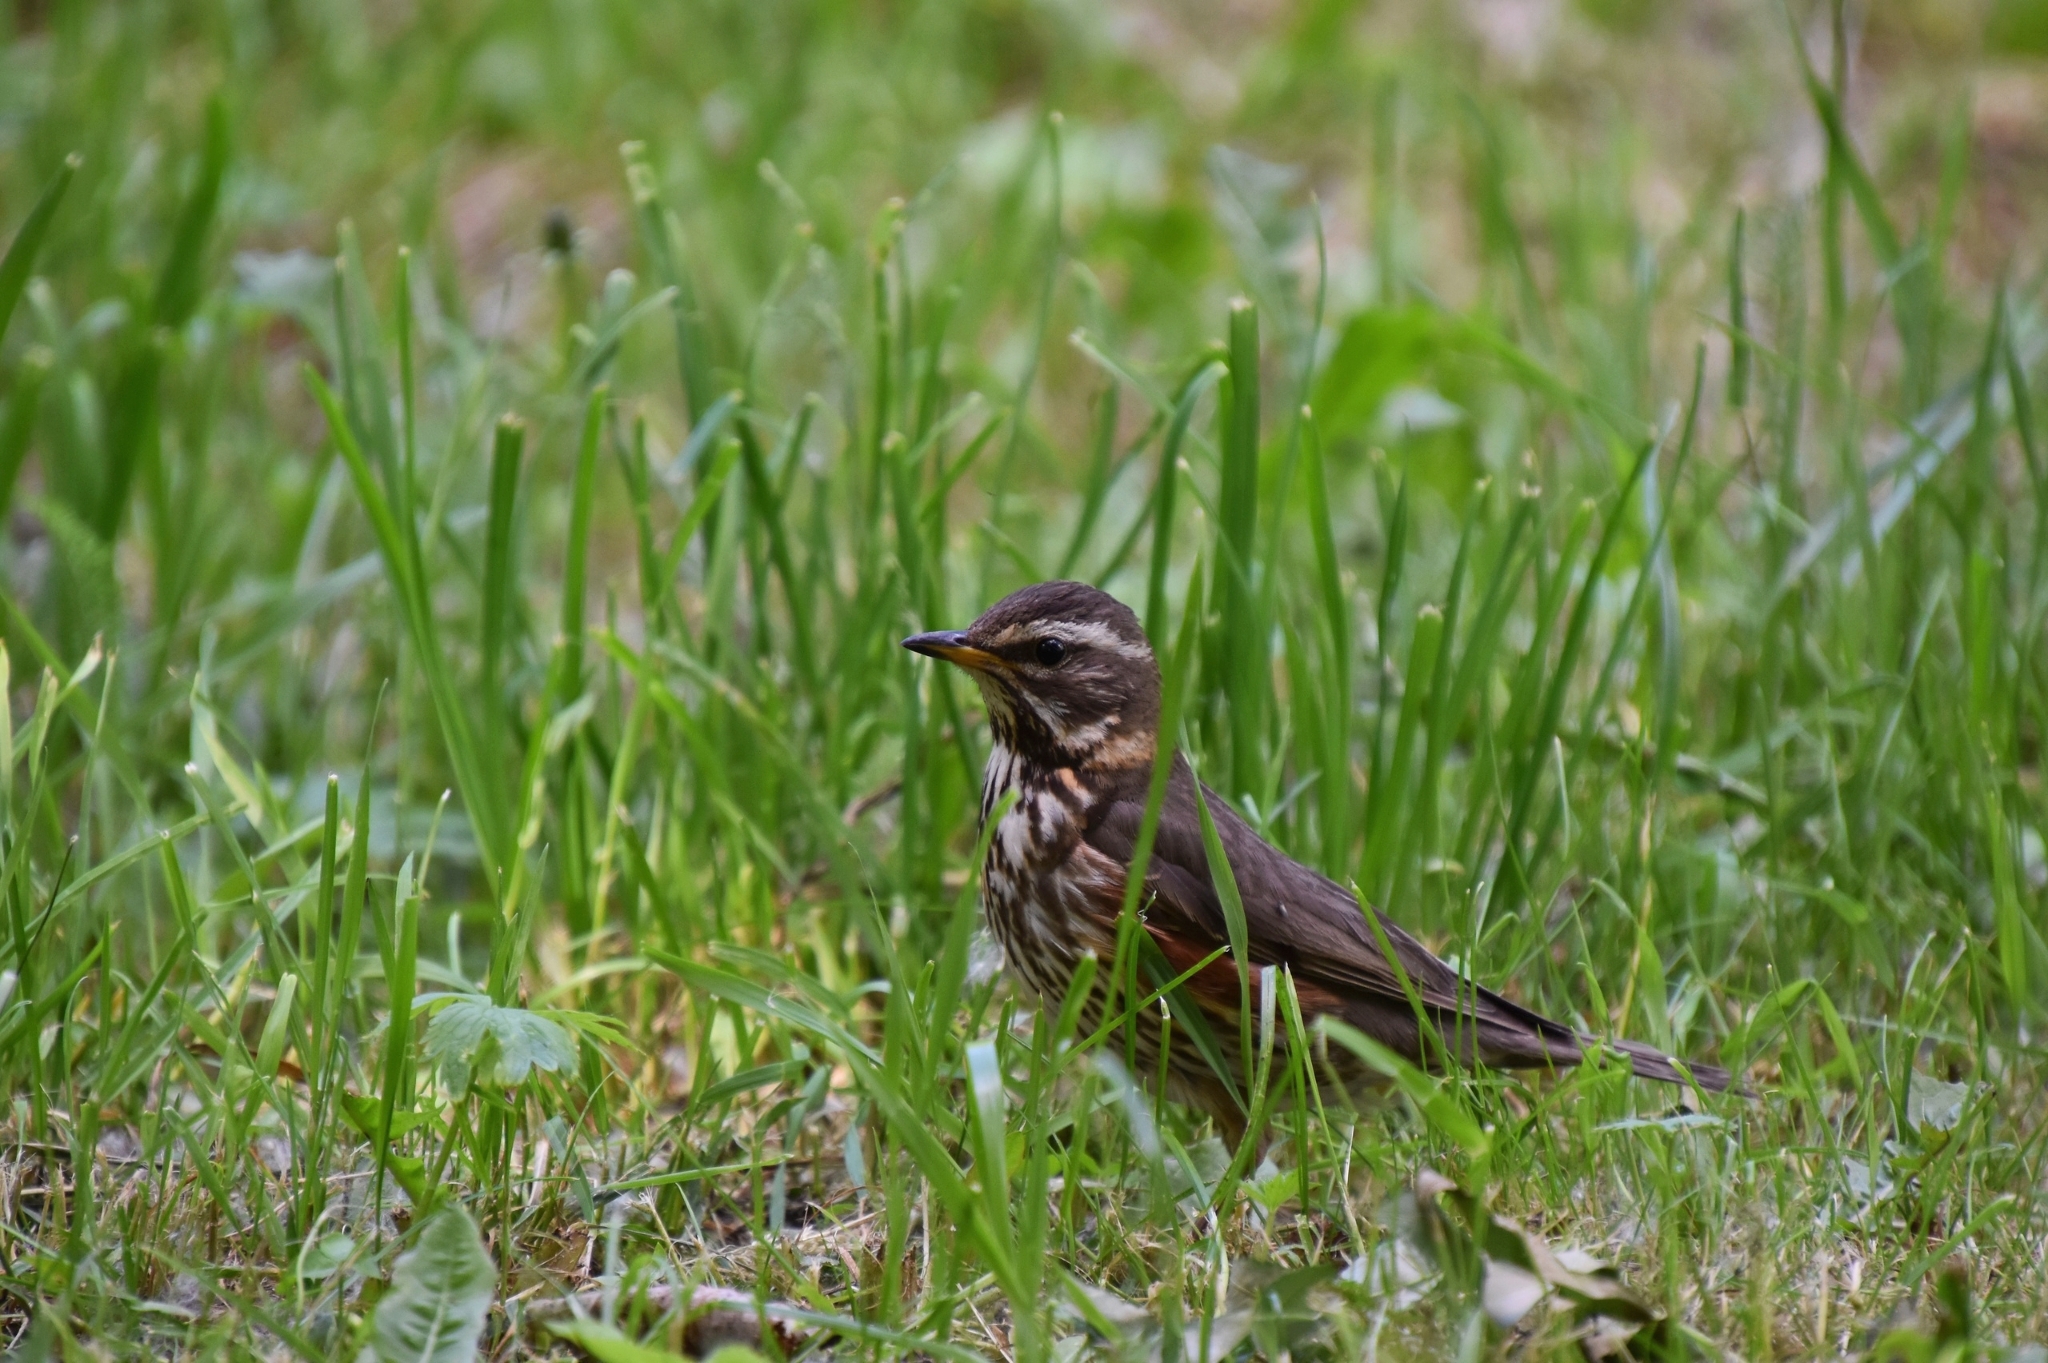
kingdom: Animalia
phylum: Chordata
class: Aves
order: Passeriformes
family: Turdidae
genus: Turdus
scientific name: Turdus iliacus
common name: Redwing
